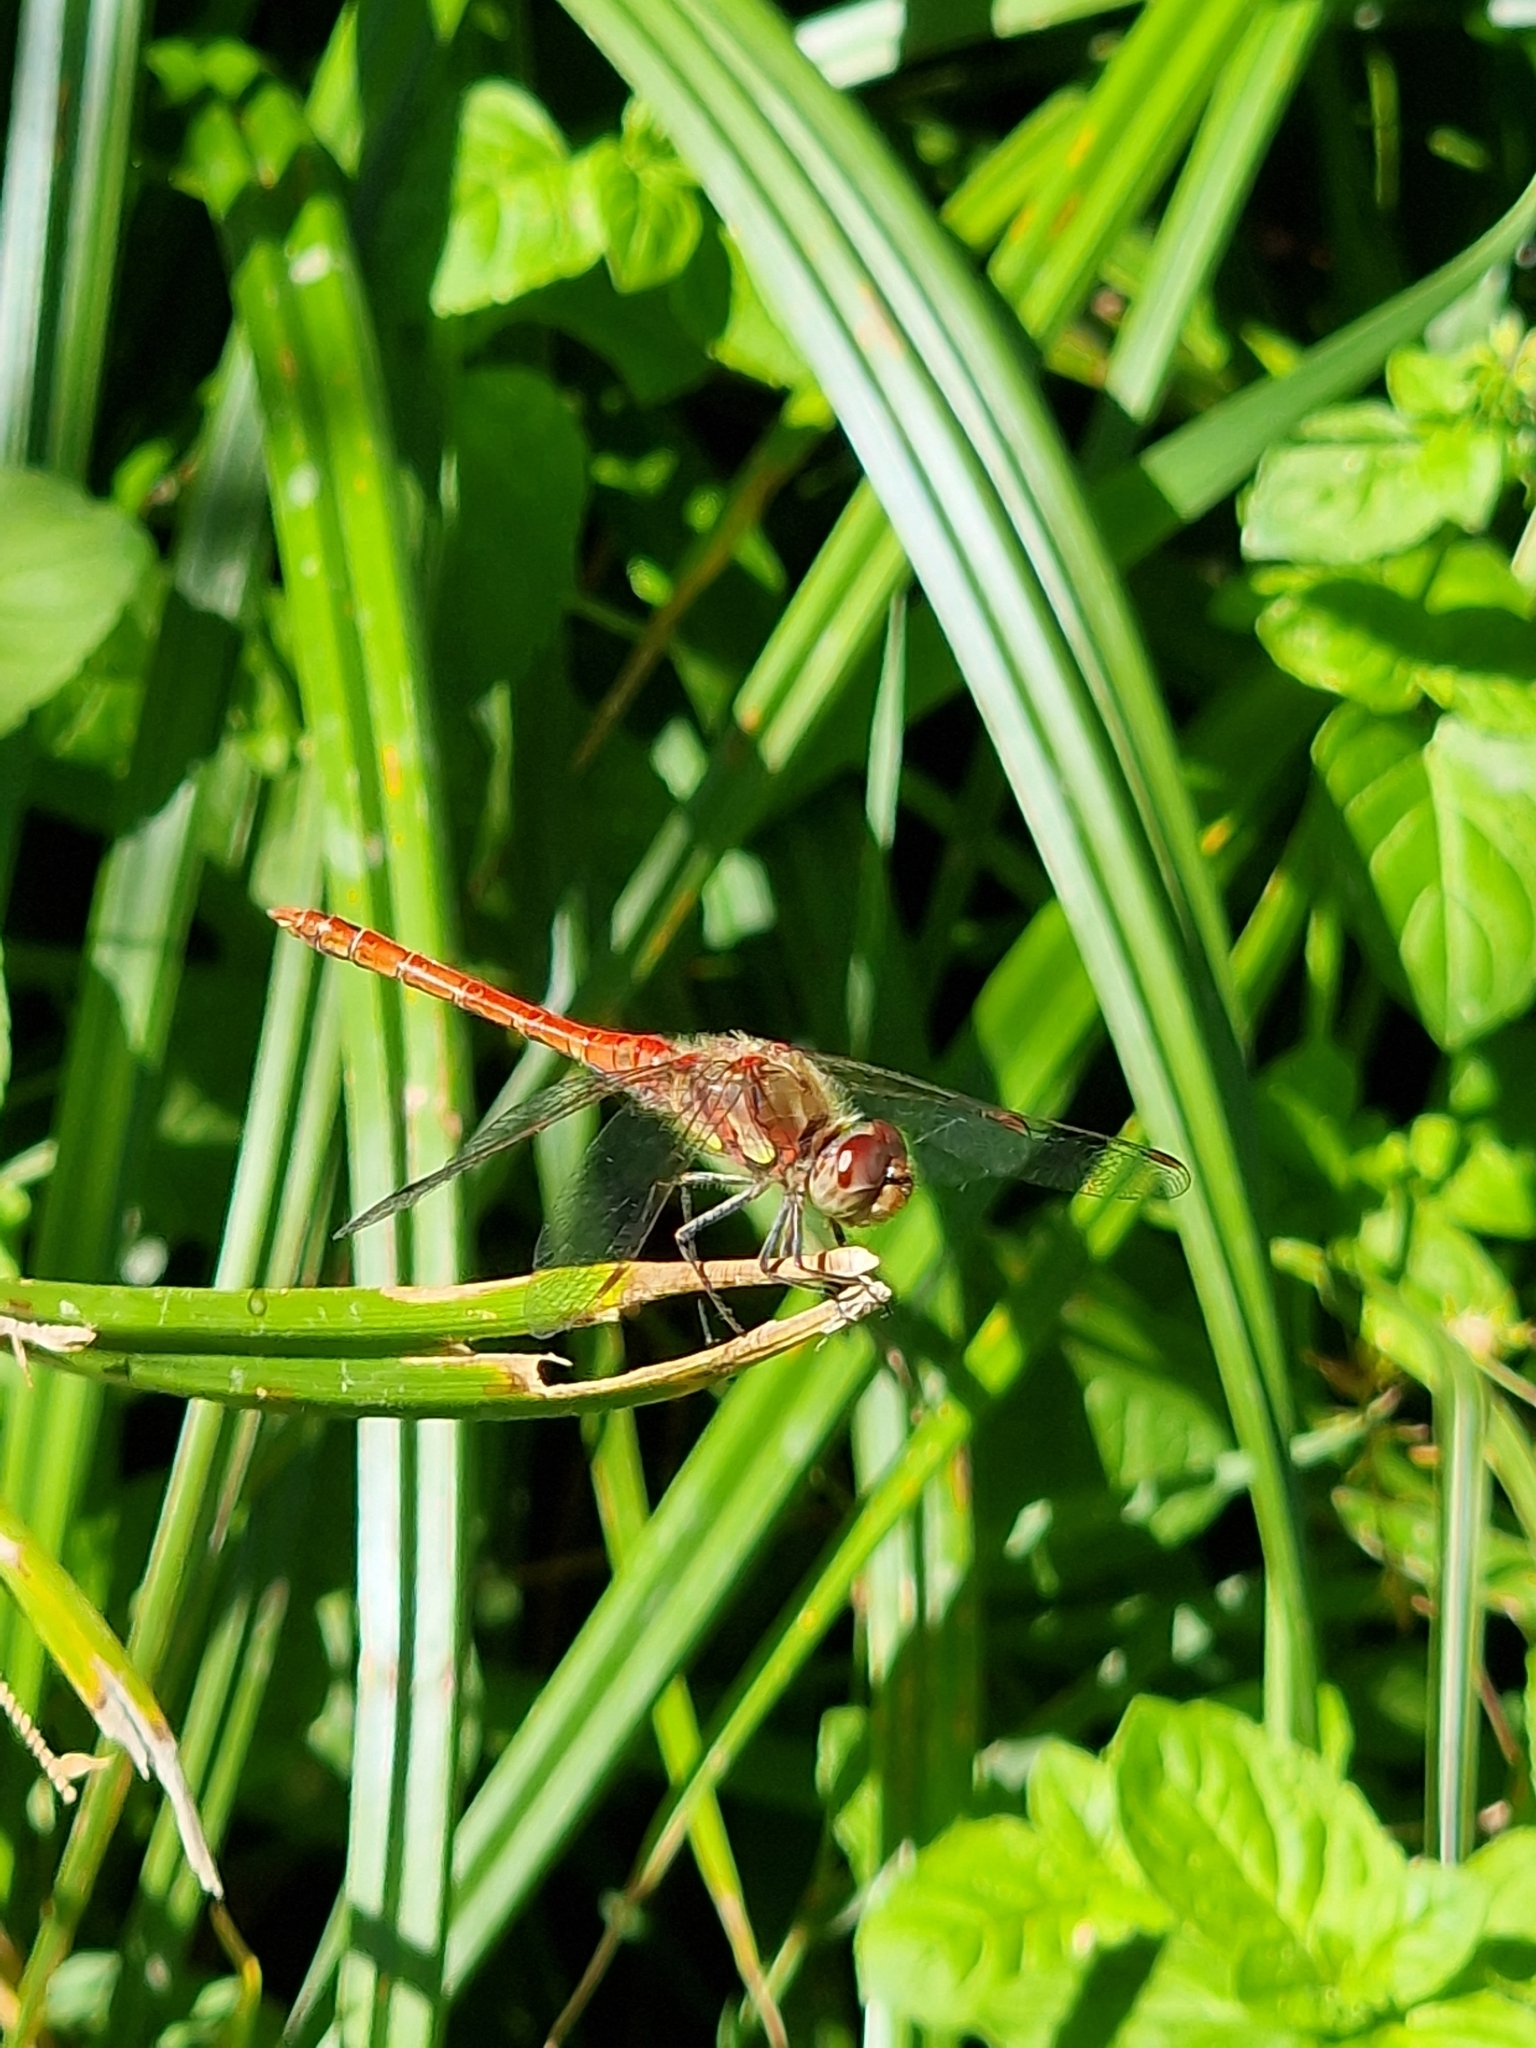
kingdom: Animalia
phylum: Arthropoda
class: Insecta
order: Odonata
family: Libellulidae
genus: Sympetrum
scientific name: Sympetrum striolatum
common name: Common darter
